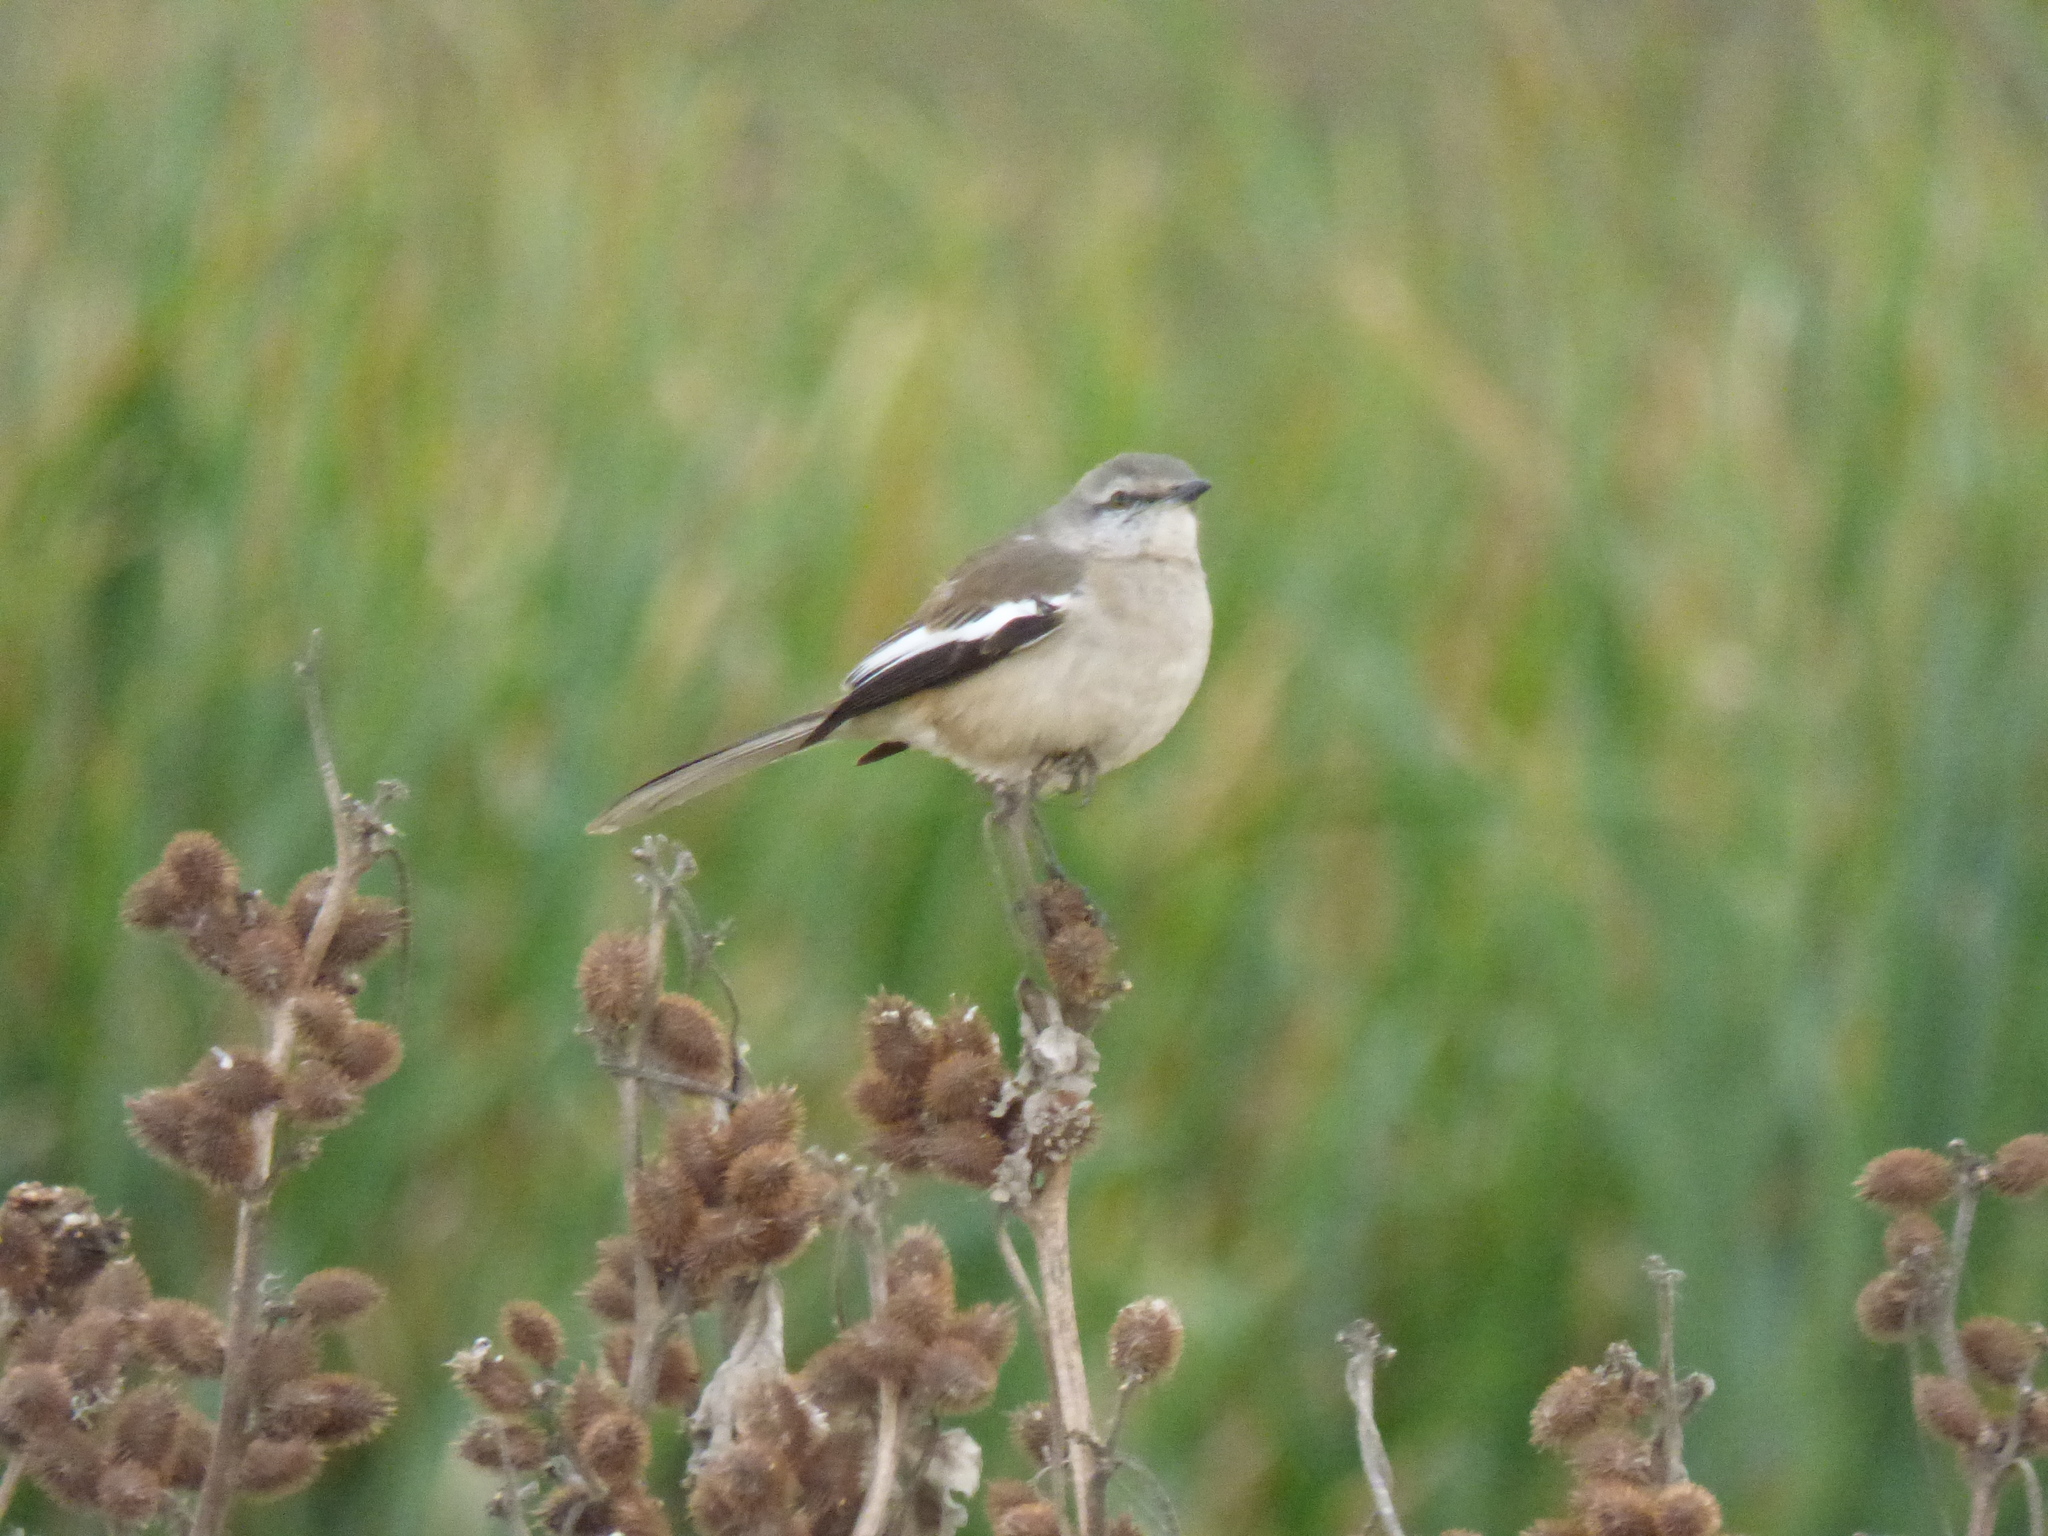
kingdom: Animalia
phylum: Chordata
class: Aves
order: Passeriformes
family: Mimidae
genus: Mimus
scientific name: Mimus triurus
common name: White-banded mockingbird
